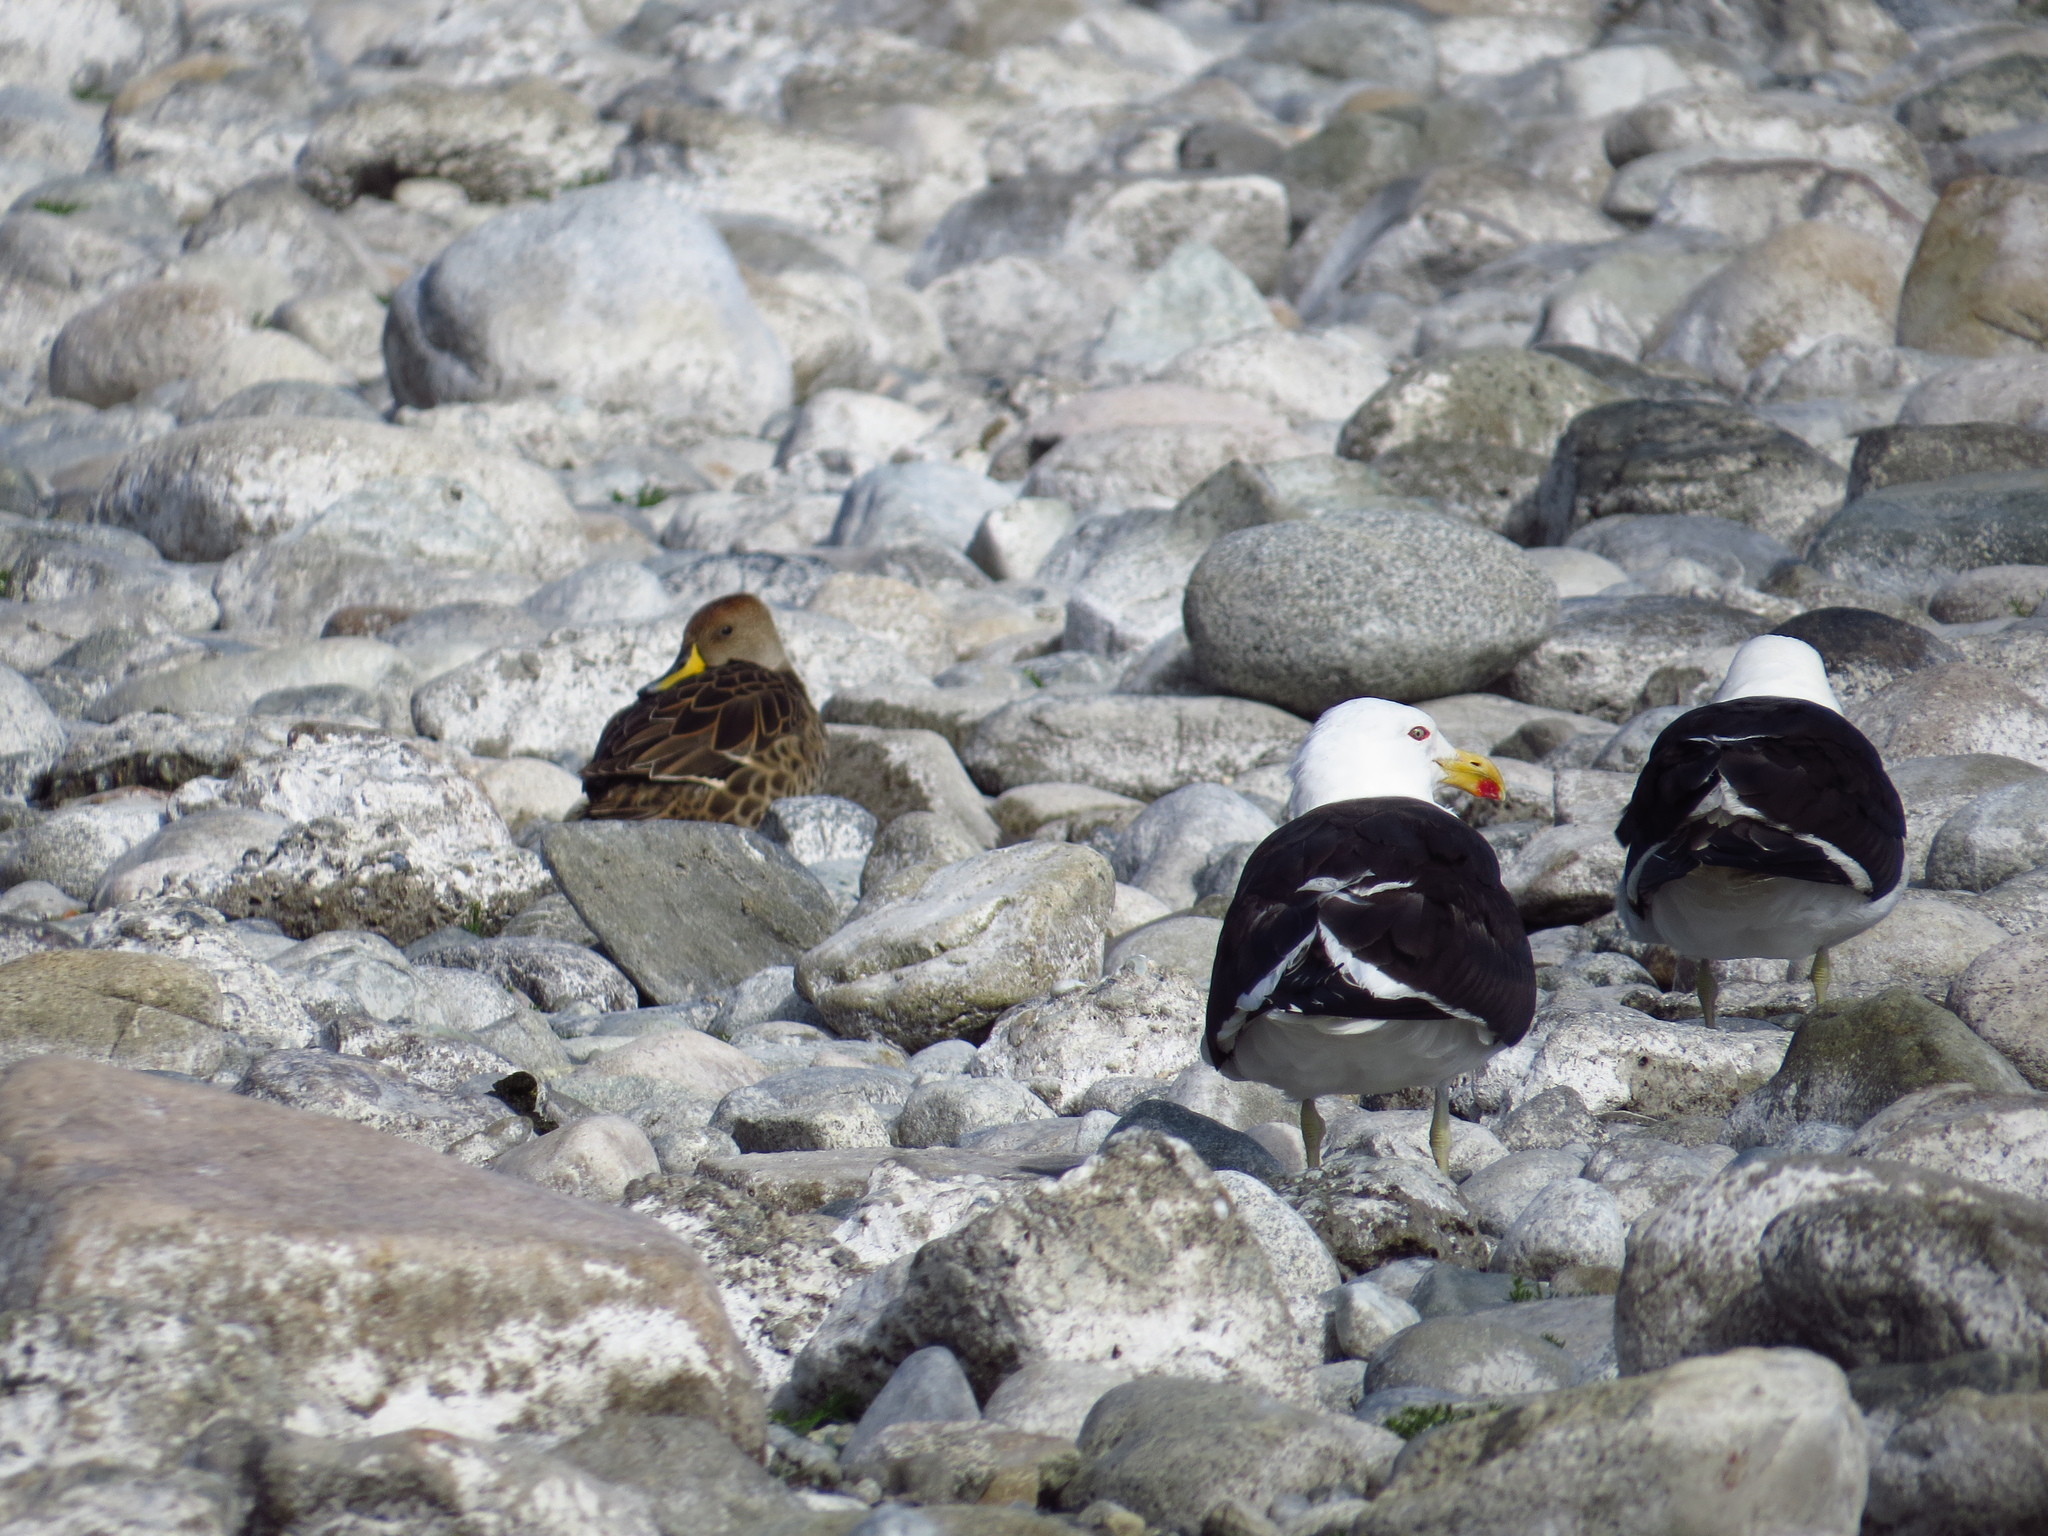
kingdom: Animalia
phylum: Chordata
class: Aves
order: Charadriiformes
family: Laridae
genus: Larus
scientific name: Larus dominicanus
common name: Kelp gull
